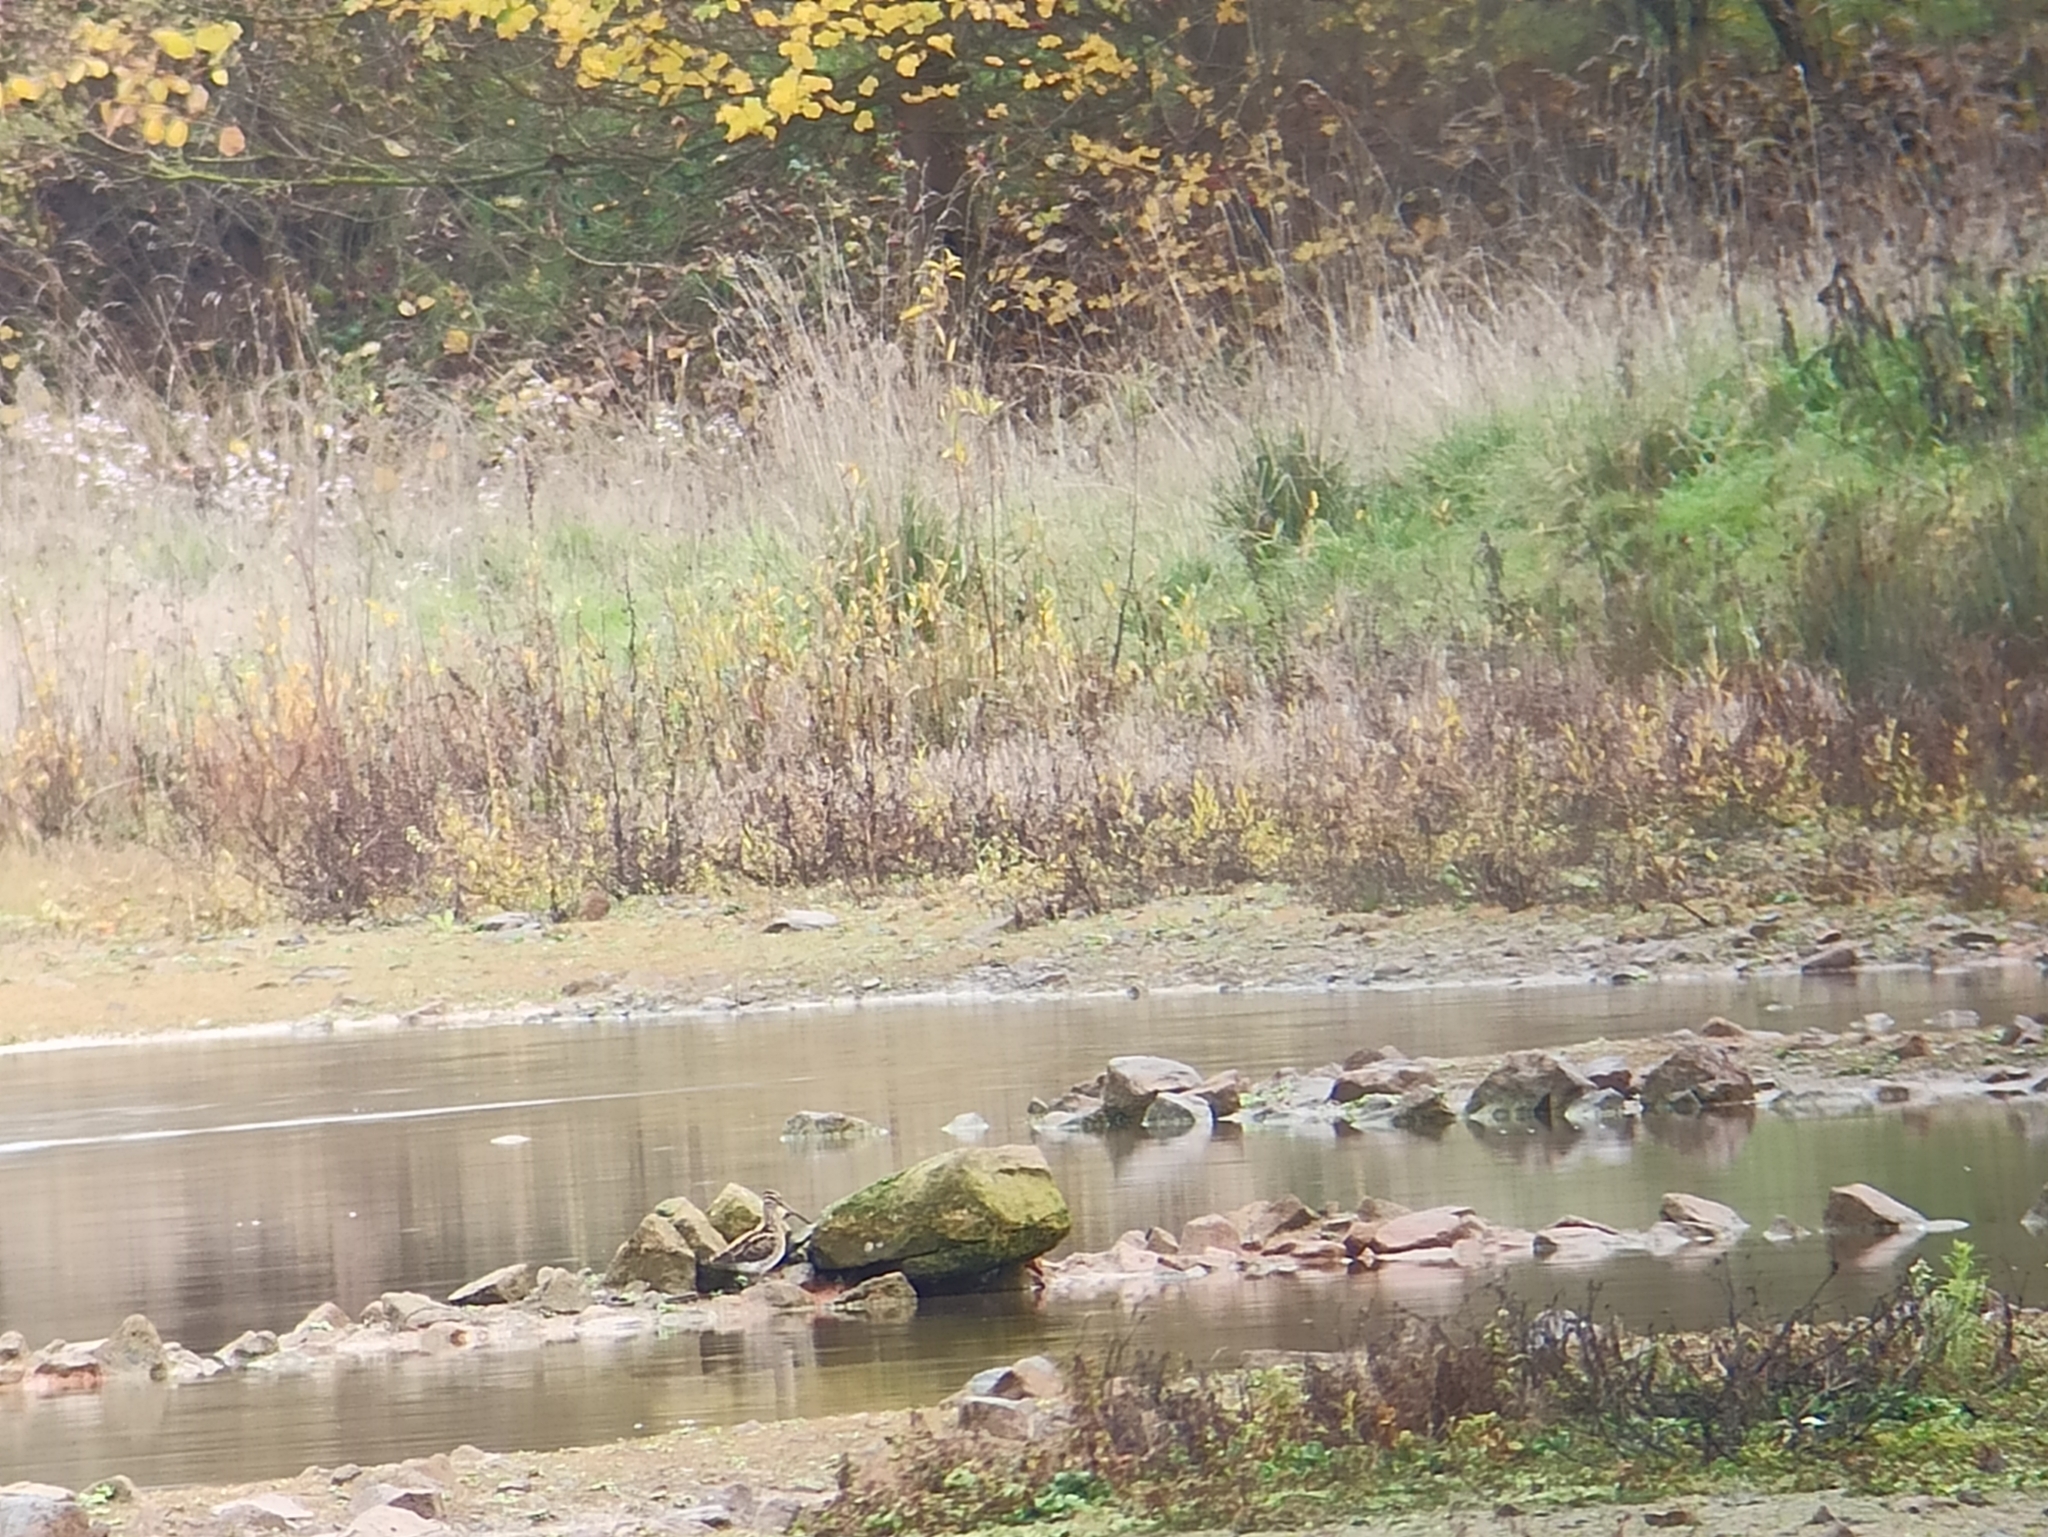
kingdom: Animalia
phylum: Chordata
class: Aves
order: Charadriiformes
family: Scolopacidae
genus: Gallinago
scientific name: Gallinago gallinago
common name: Common snipe
